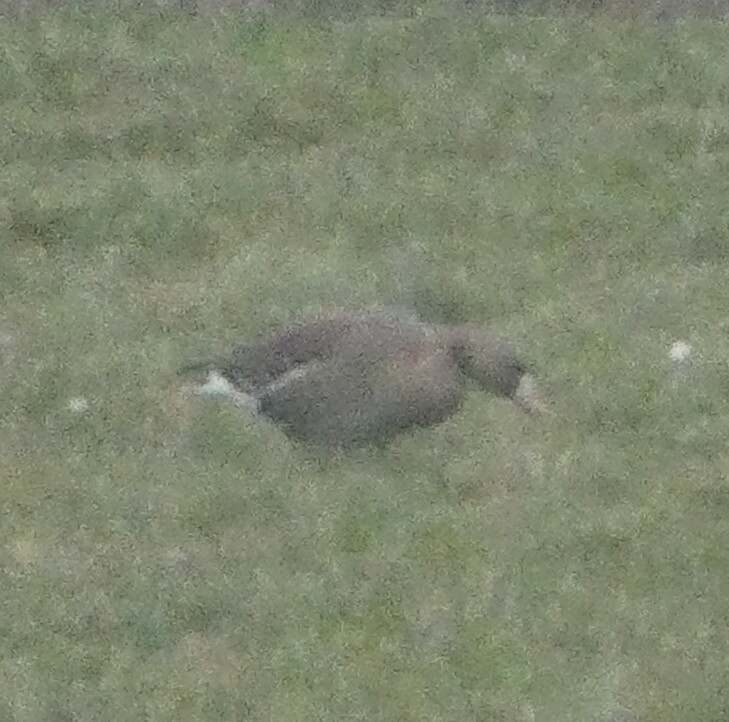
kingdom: Animalia
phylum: Chordata
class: Aves
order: Anseriformes
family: Anatidae
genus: Anser
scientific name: Anser albifrons
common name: Greater white-fronted goose
